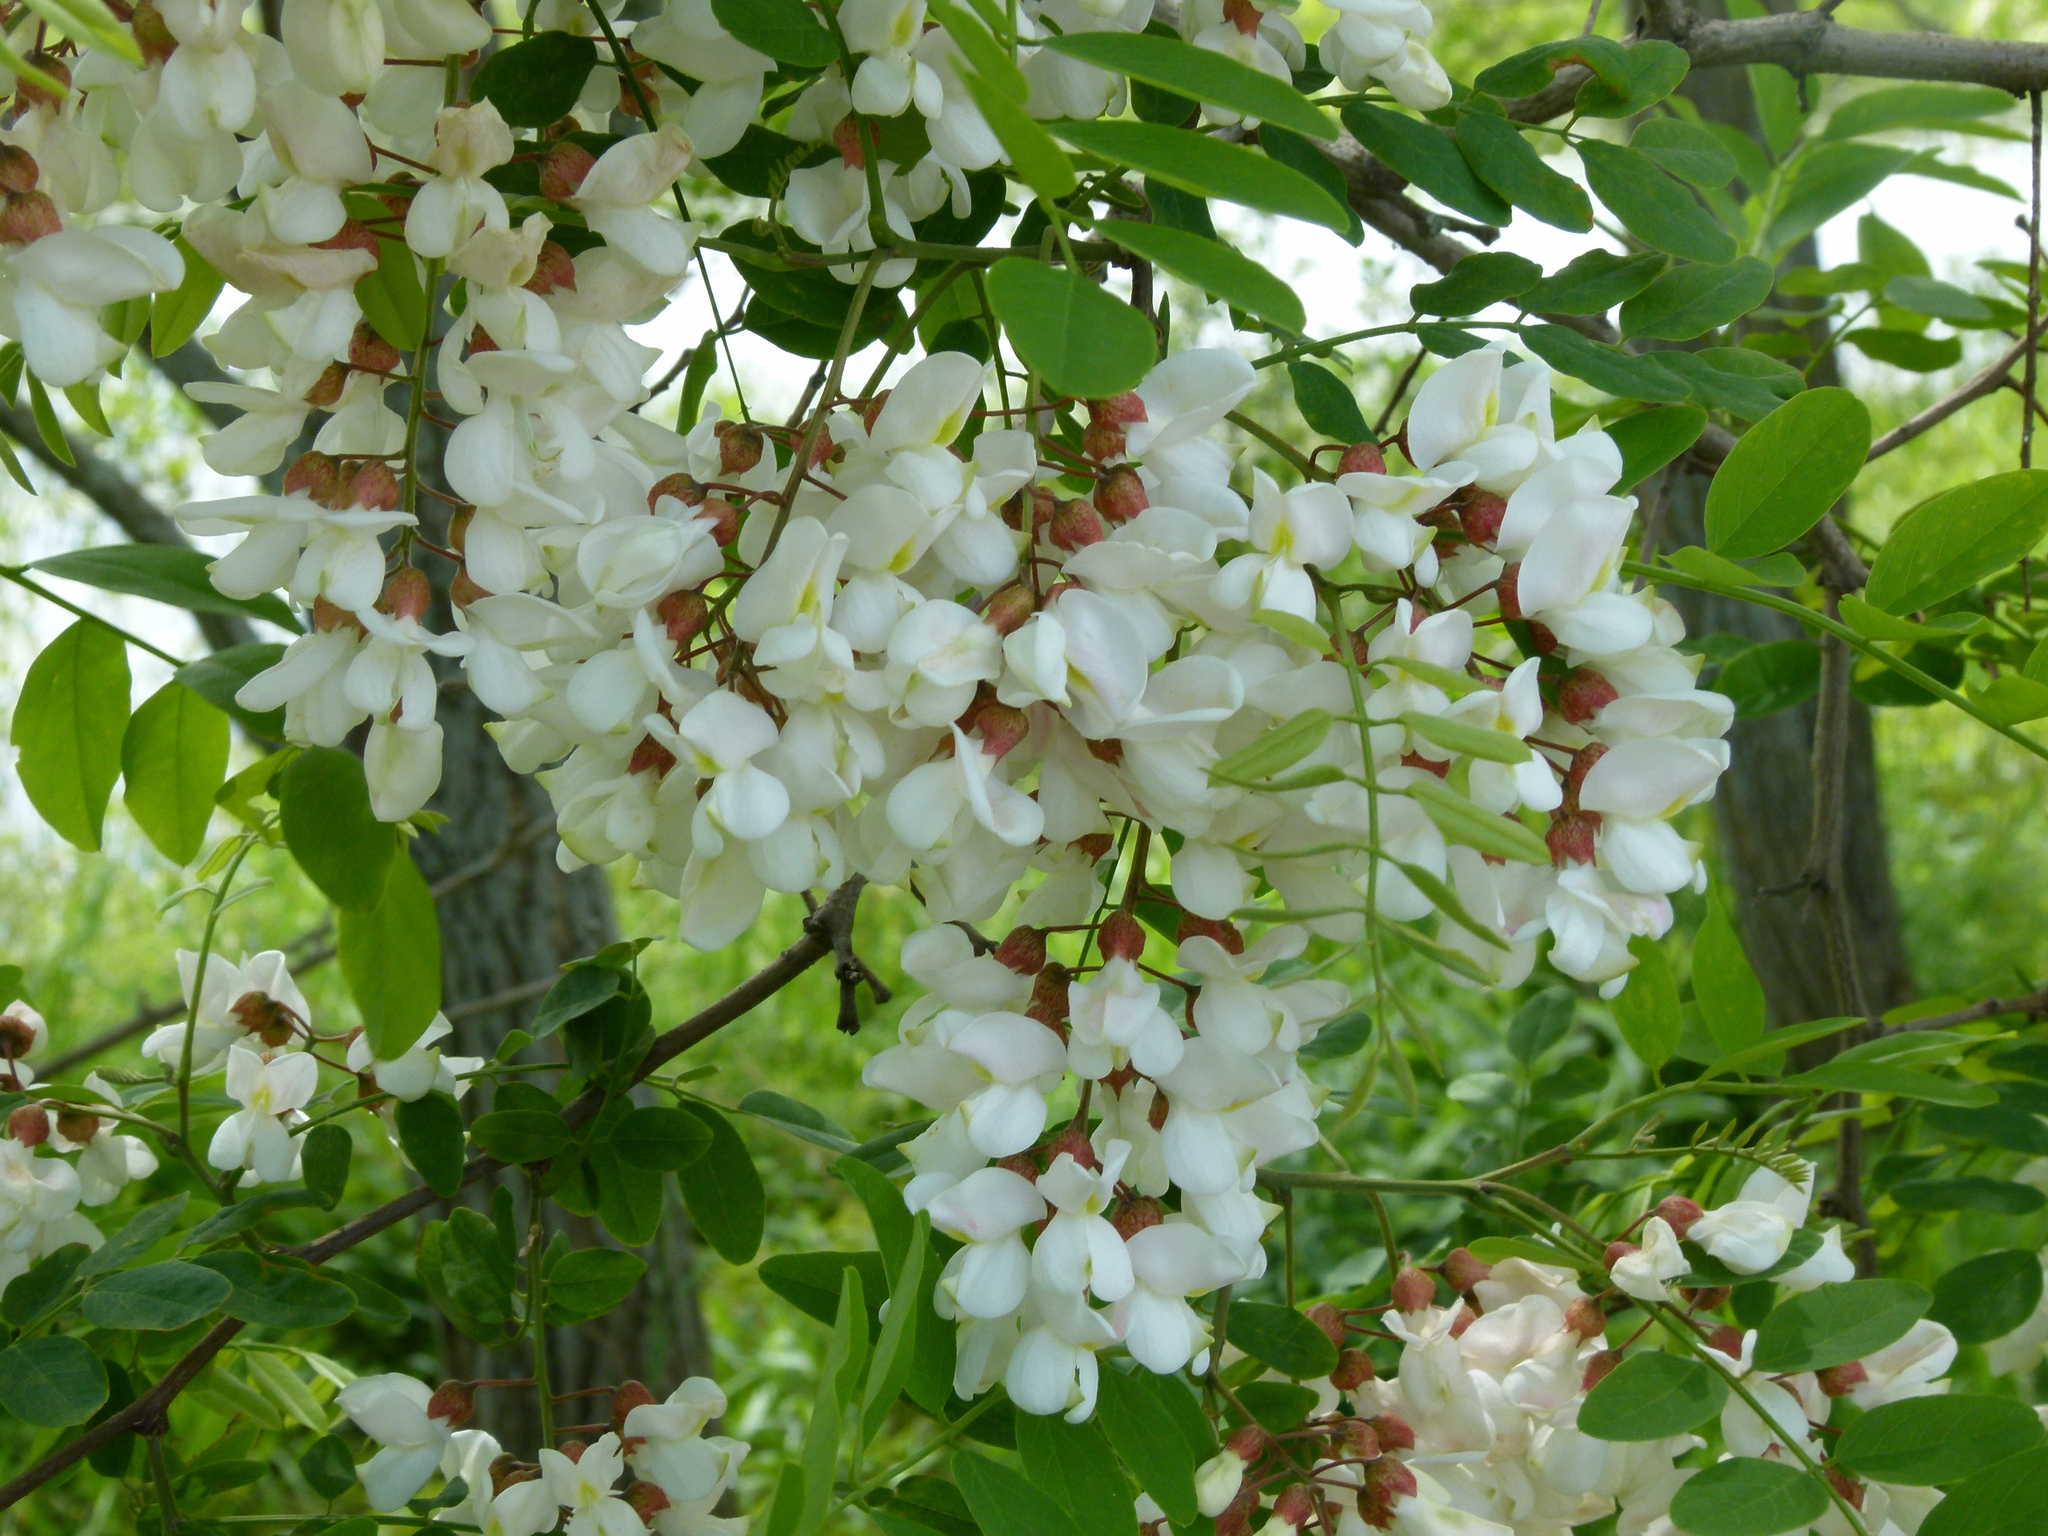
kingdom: Plantae
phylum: Tracheophyta
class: Magnoliopsida
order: Fabales
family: Fabaceae
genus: Robinia
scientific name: Robinia pseudoacacia
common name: Black locust
